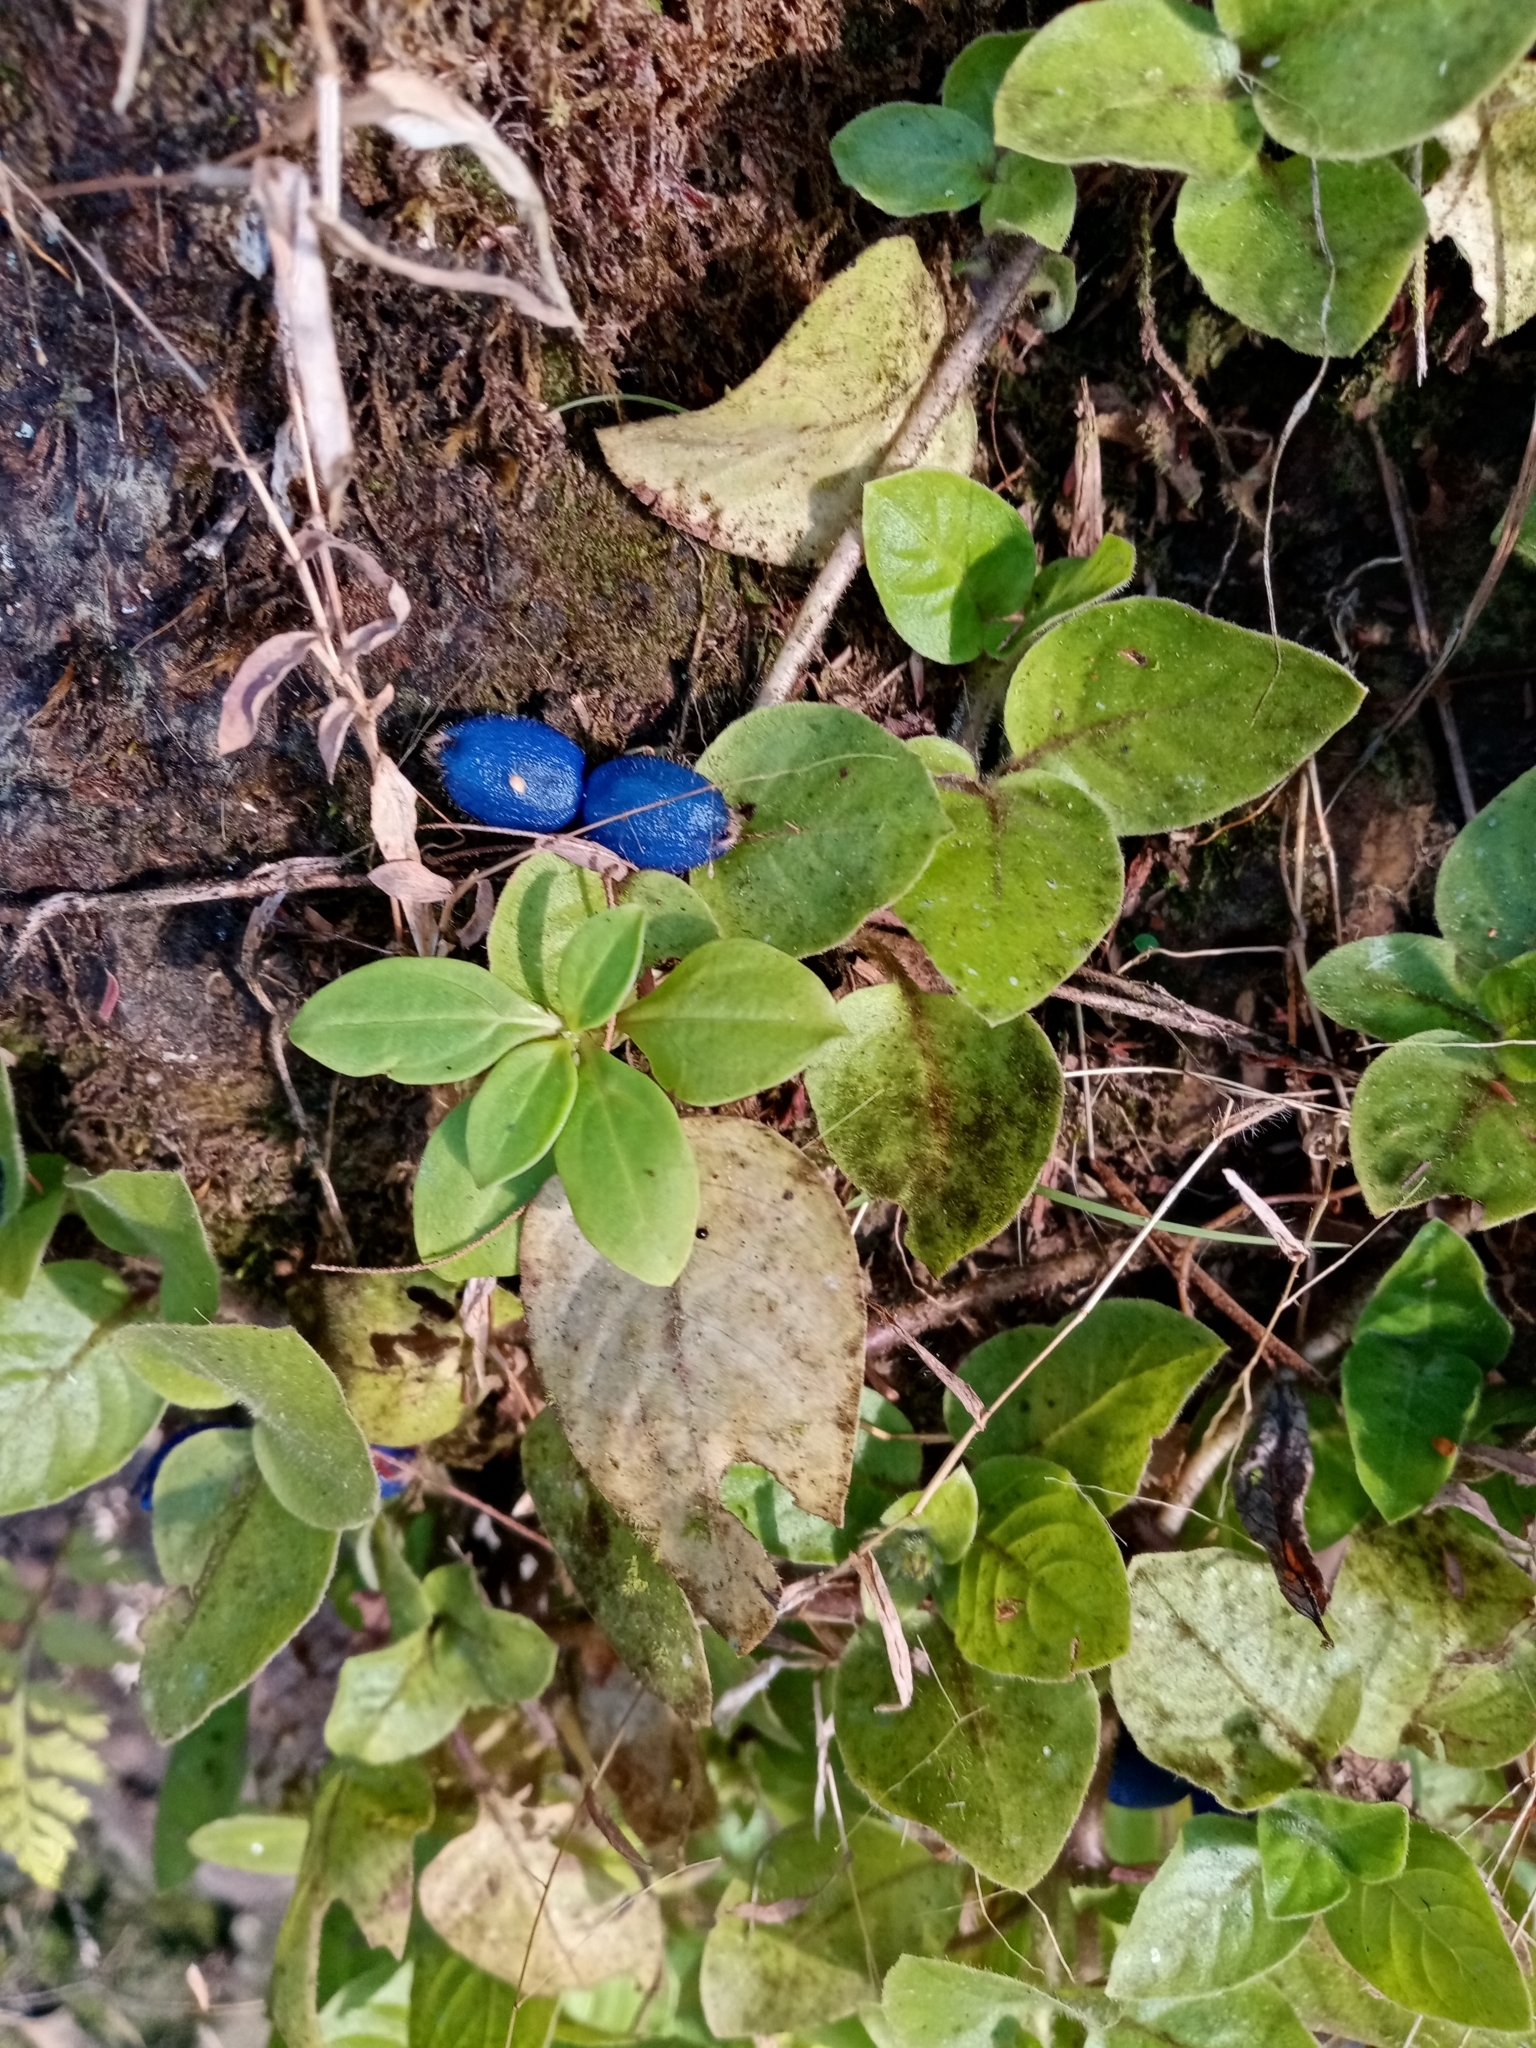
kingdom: Plantae
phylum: Tracheophyta
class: Magnoliopsida
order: Gentianales
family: Rubiaceae
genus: Coccocypselum
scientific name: Coccocypselum hirsutum
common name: Yerba de guava
